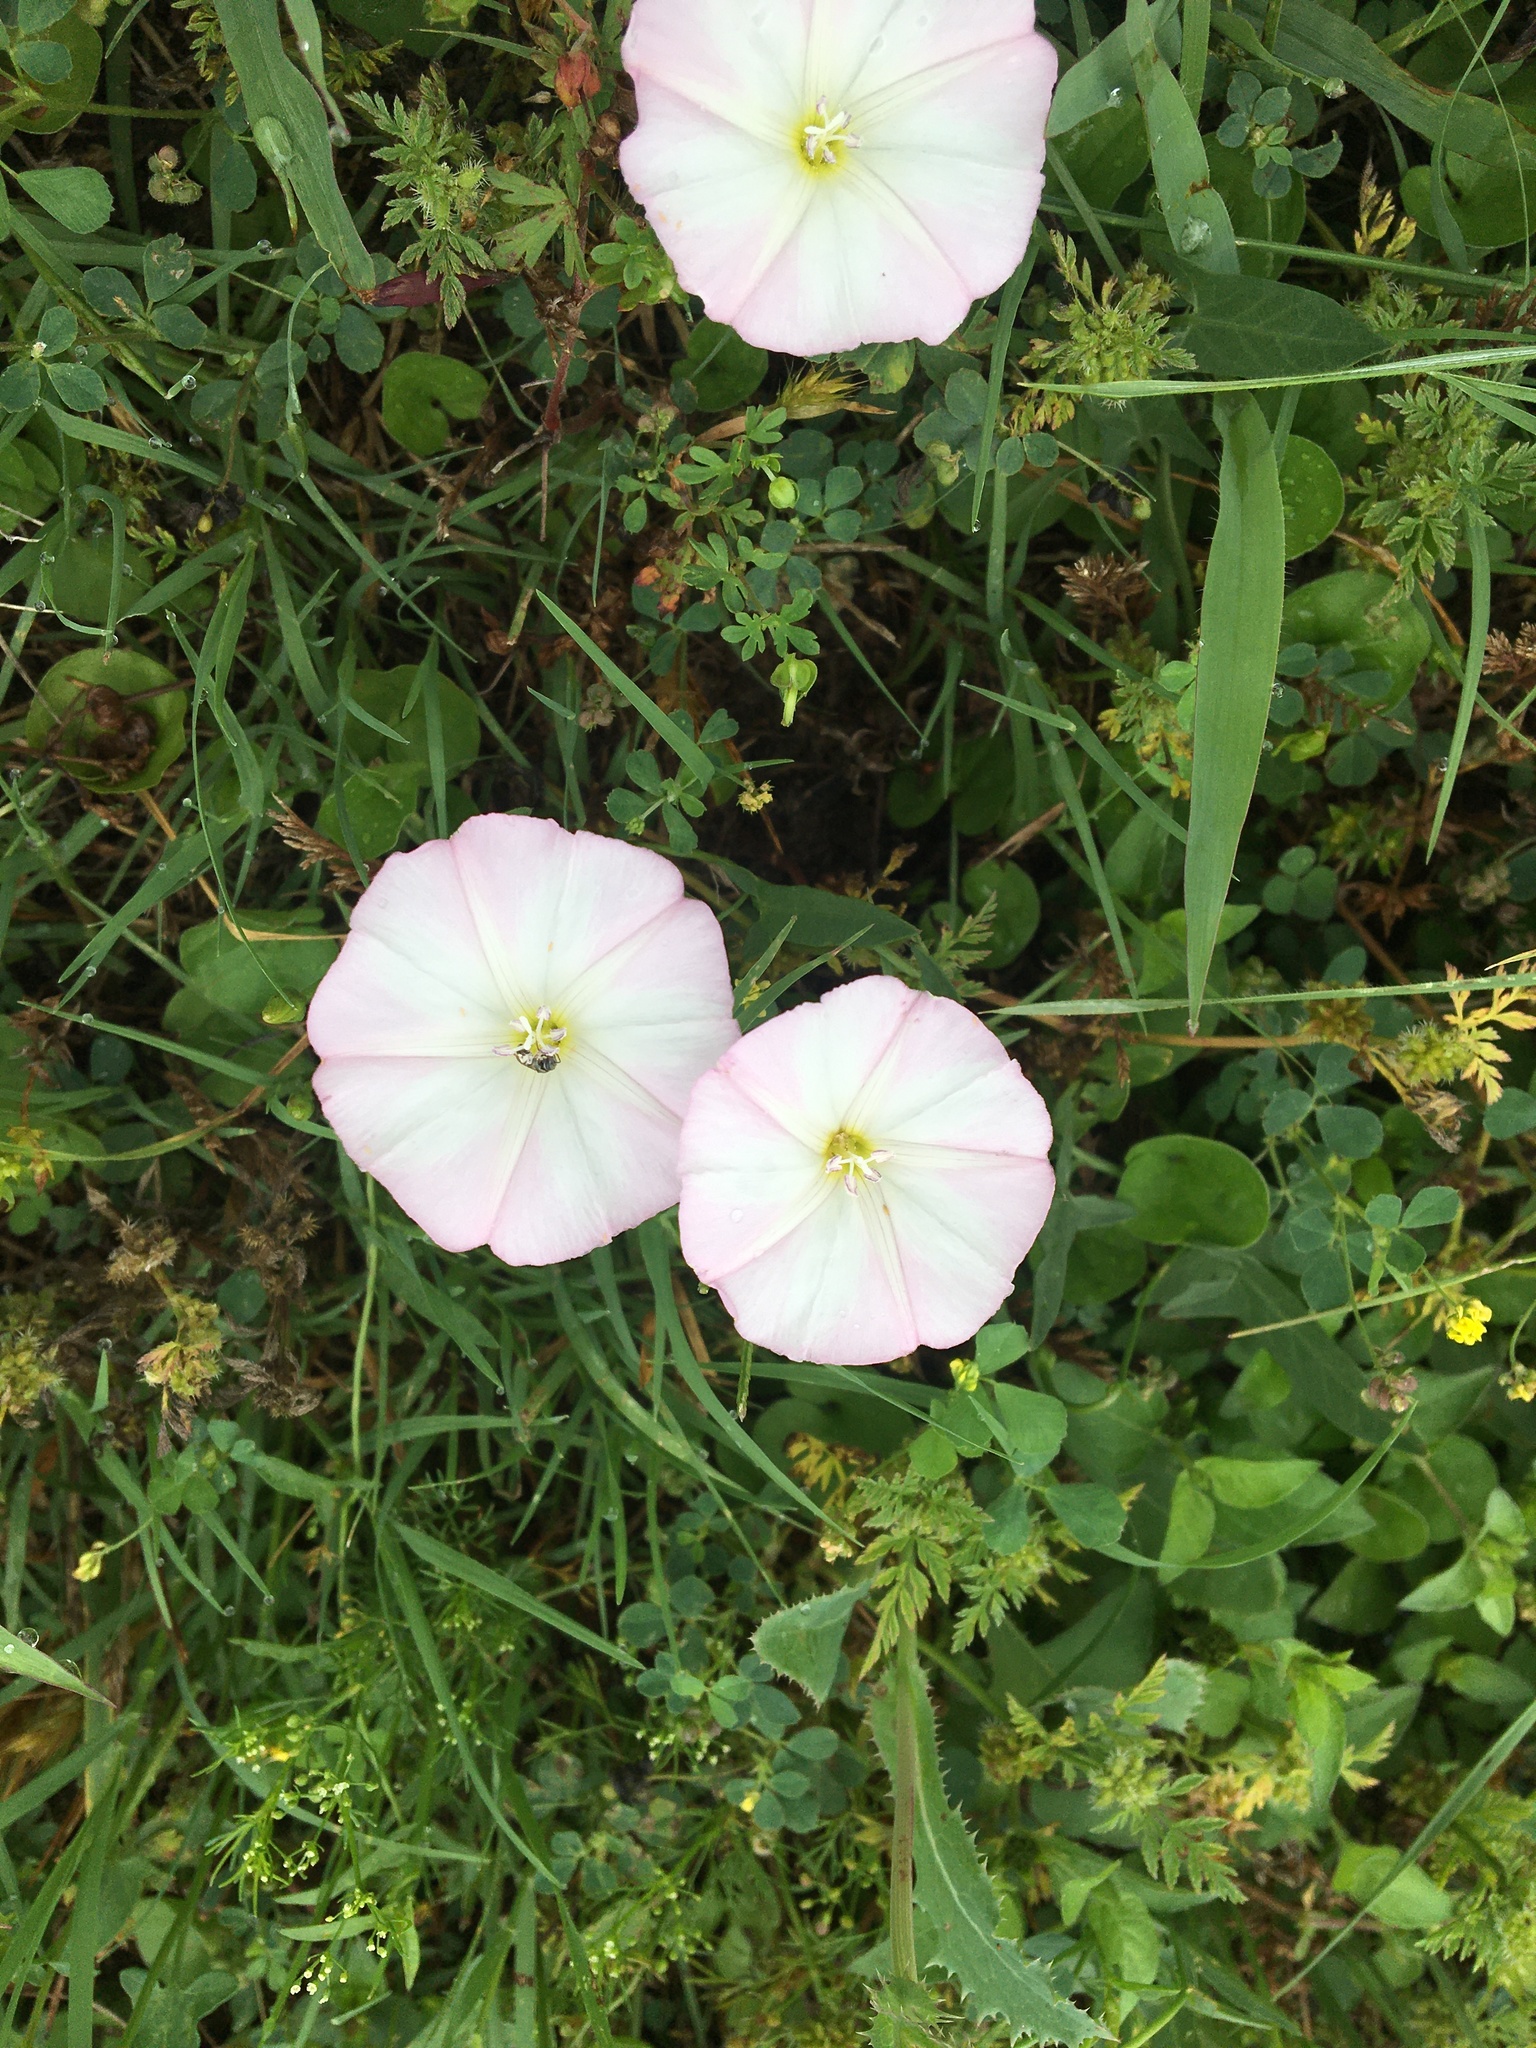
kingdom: Plantae
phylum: Tracheophyta
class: Magnoliopsida
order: Solanales
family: Convolvulaceae
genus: Convolvulus
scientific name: Convolvulus arvensis
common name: Field bindweed
